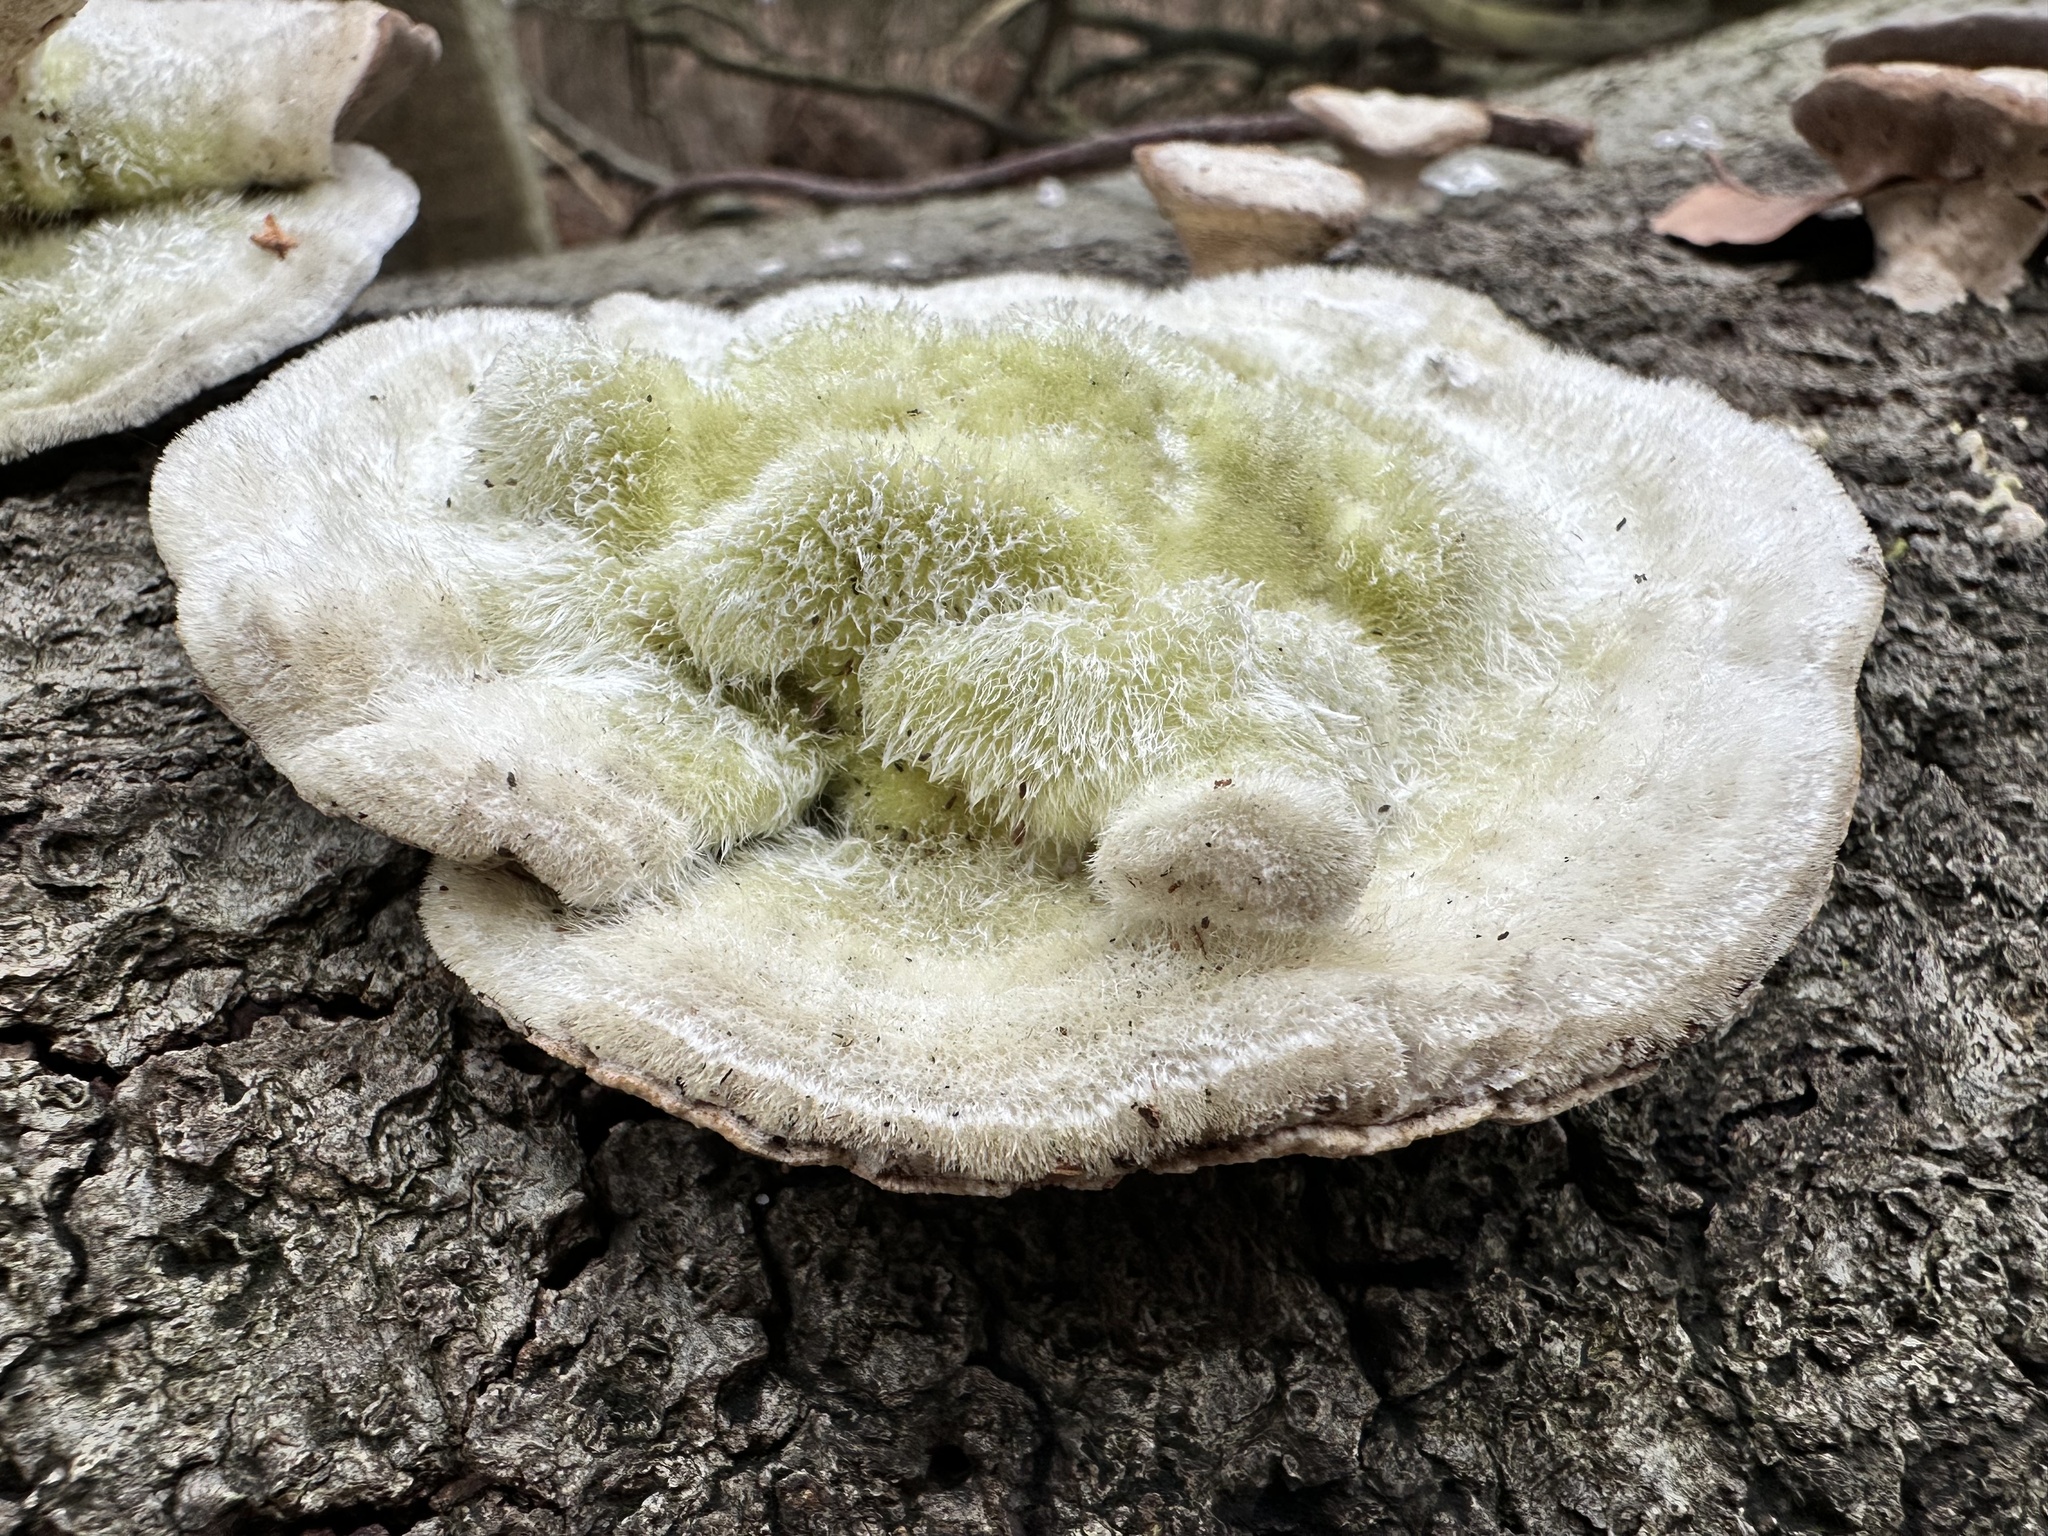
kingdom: Fungi
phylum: Basidiomycota
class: Agaricomycetes
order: Polyporales
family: Polyporaceae
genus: Trametes
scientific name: Trametes hirsuta
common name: Hairy bracket
